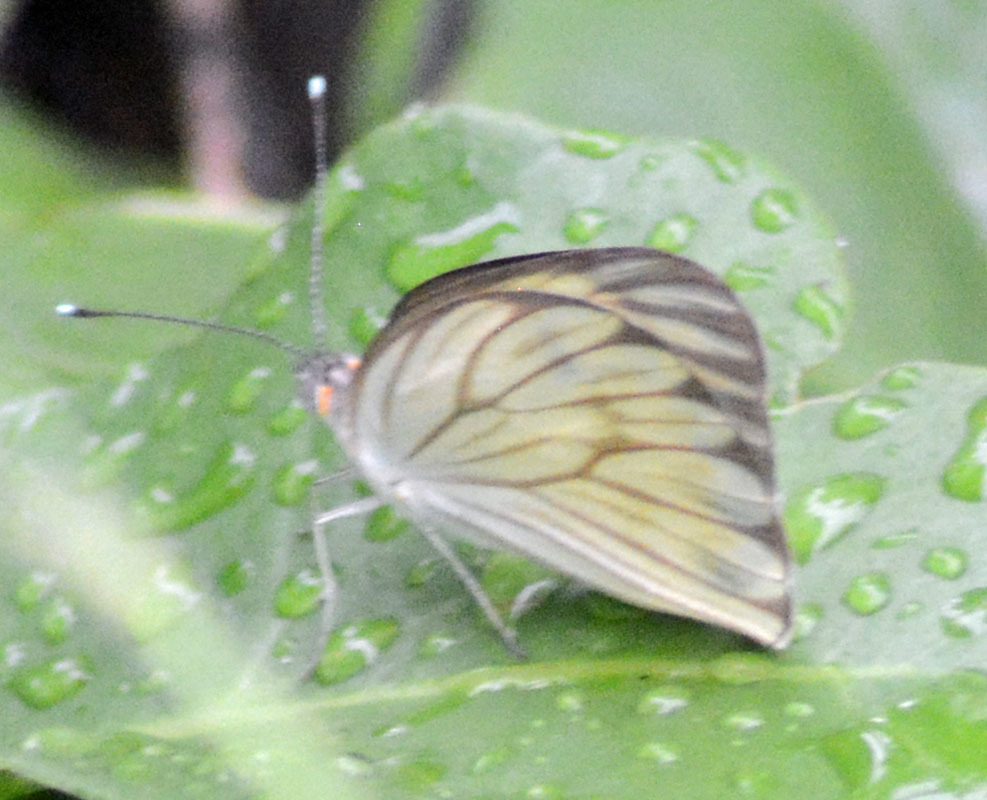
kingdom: Animalia
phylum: Arthropoda
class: Insecta
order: Lepidoptera
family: Pieridae
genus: Ascia
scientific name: Ascia monuste
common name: Great southern white
